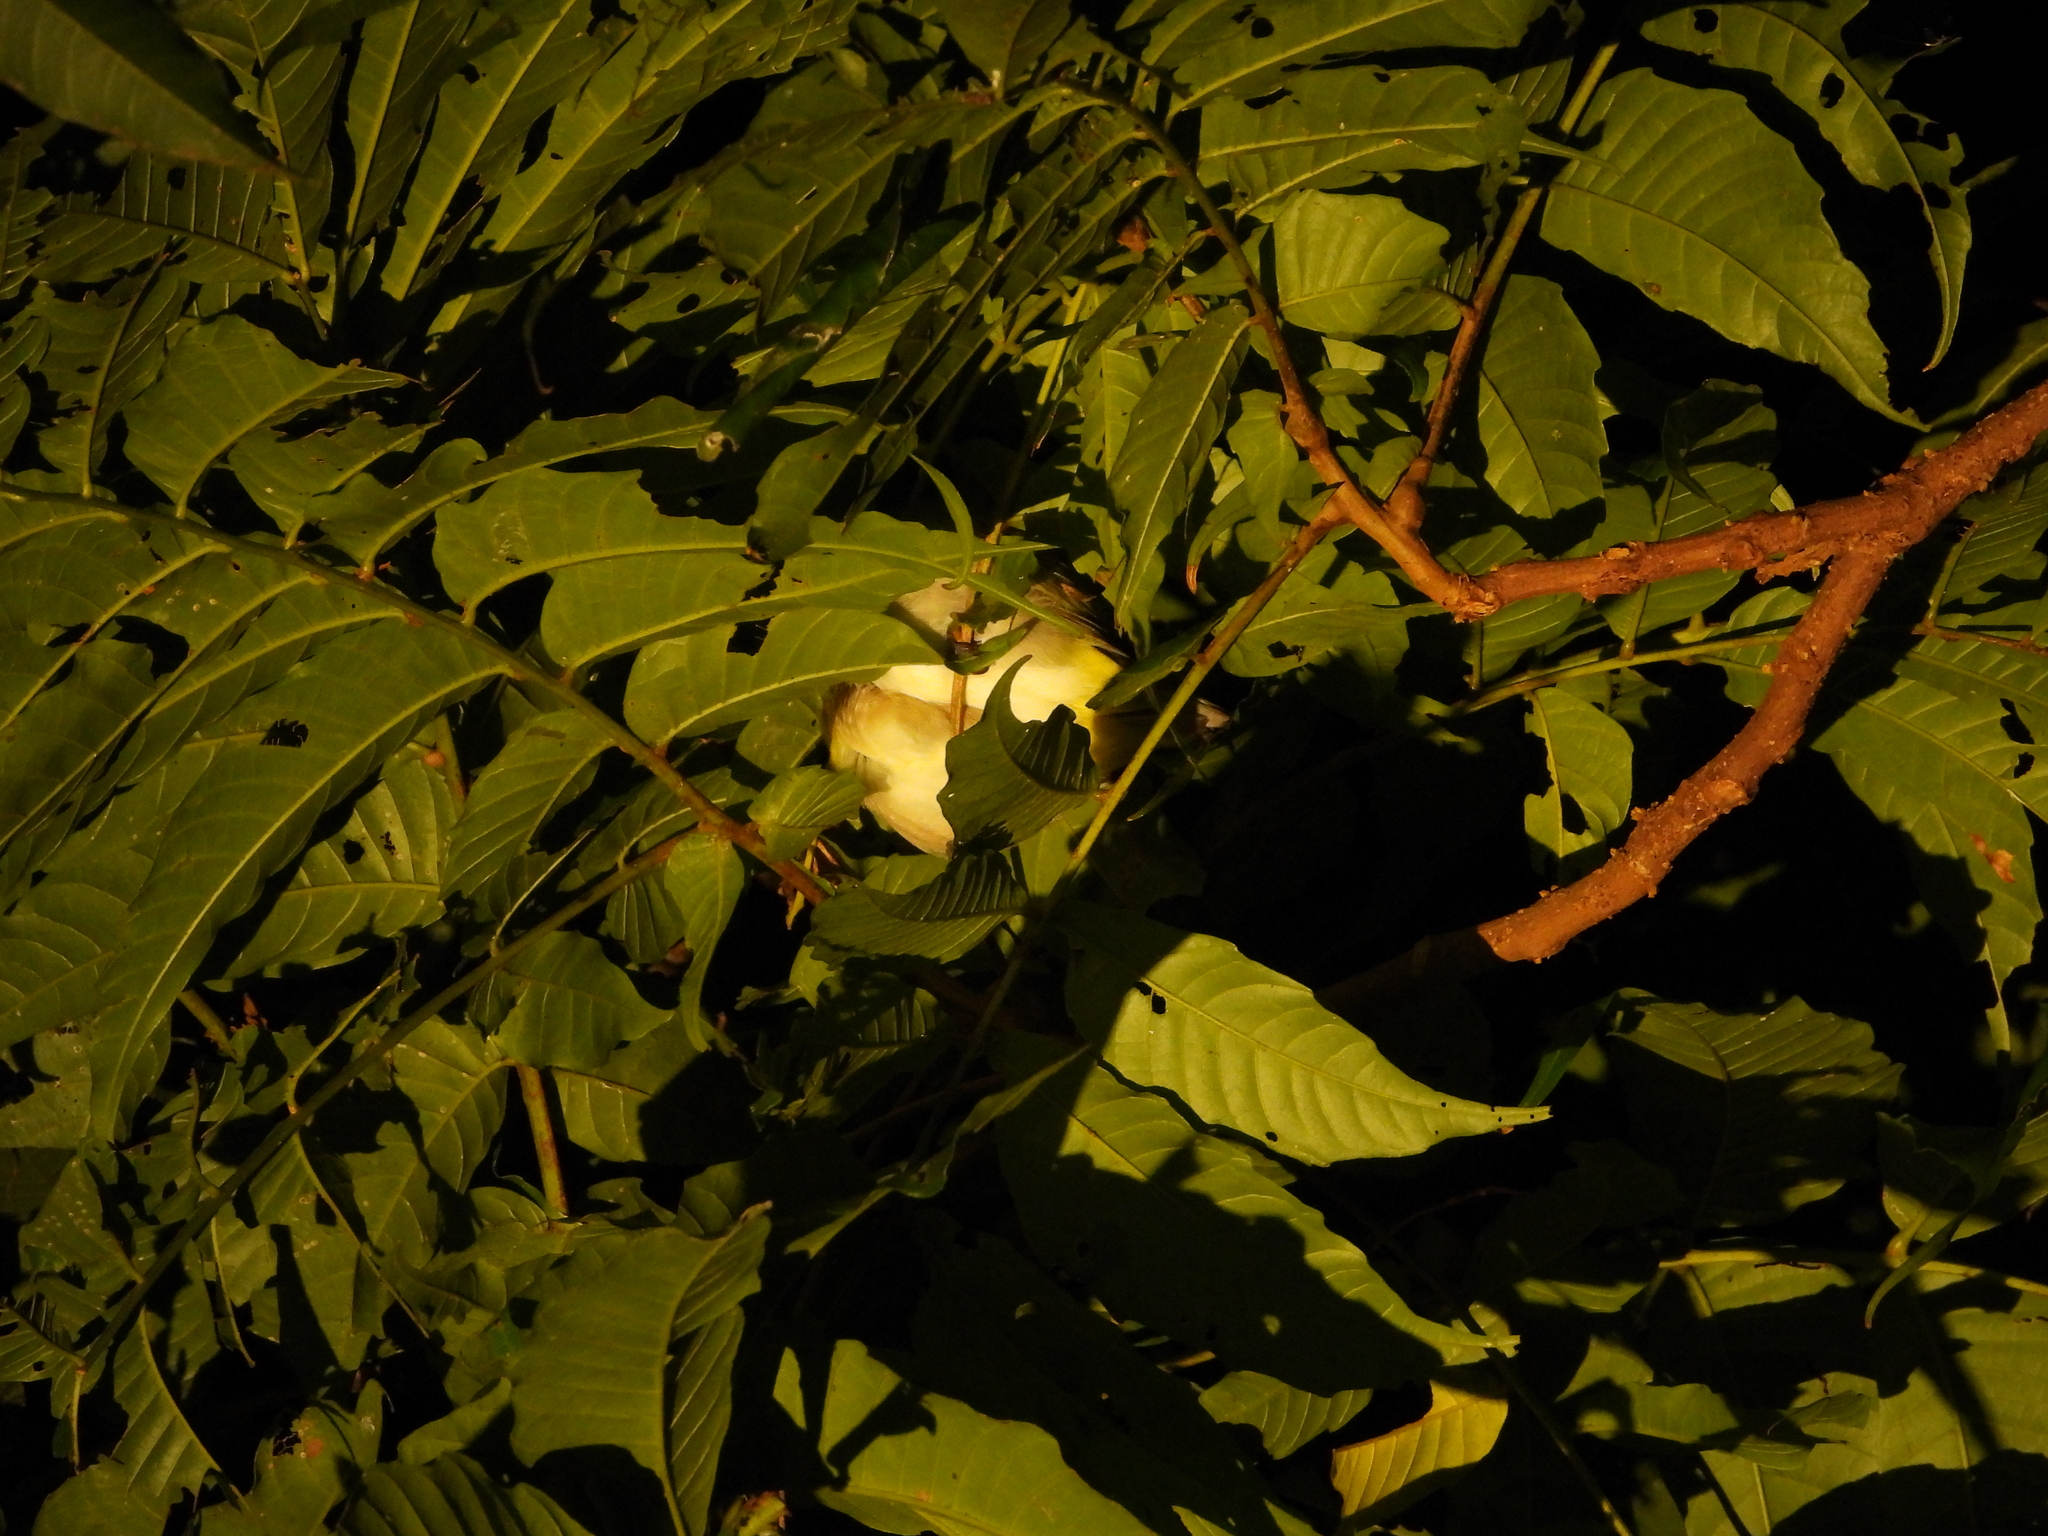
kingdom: Animalia
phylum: Chordata
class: Aves
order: Passeriformes
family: Zosteropidae
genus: Zosterops
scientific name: Zosterops meyeni
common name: Lowland white-eye
